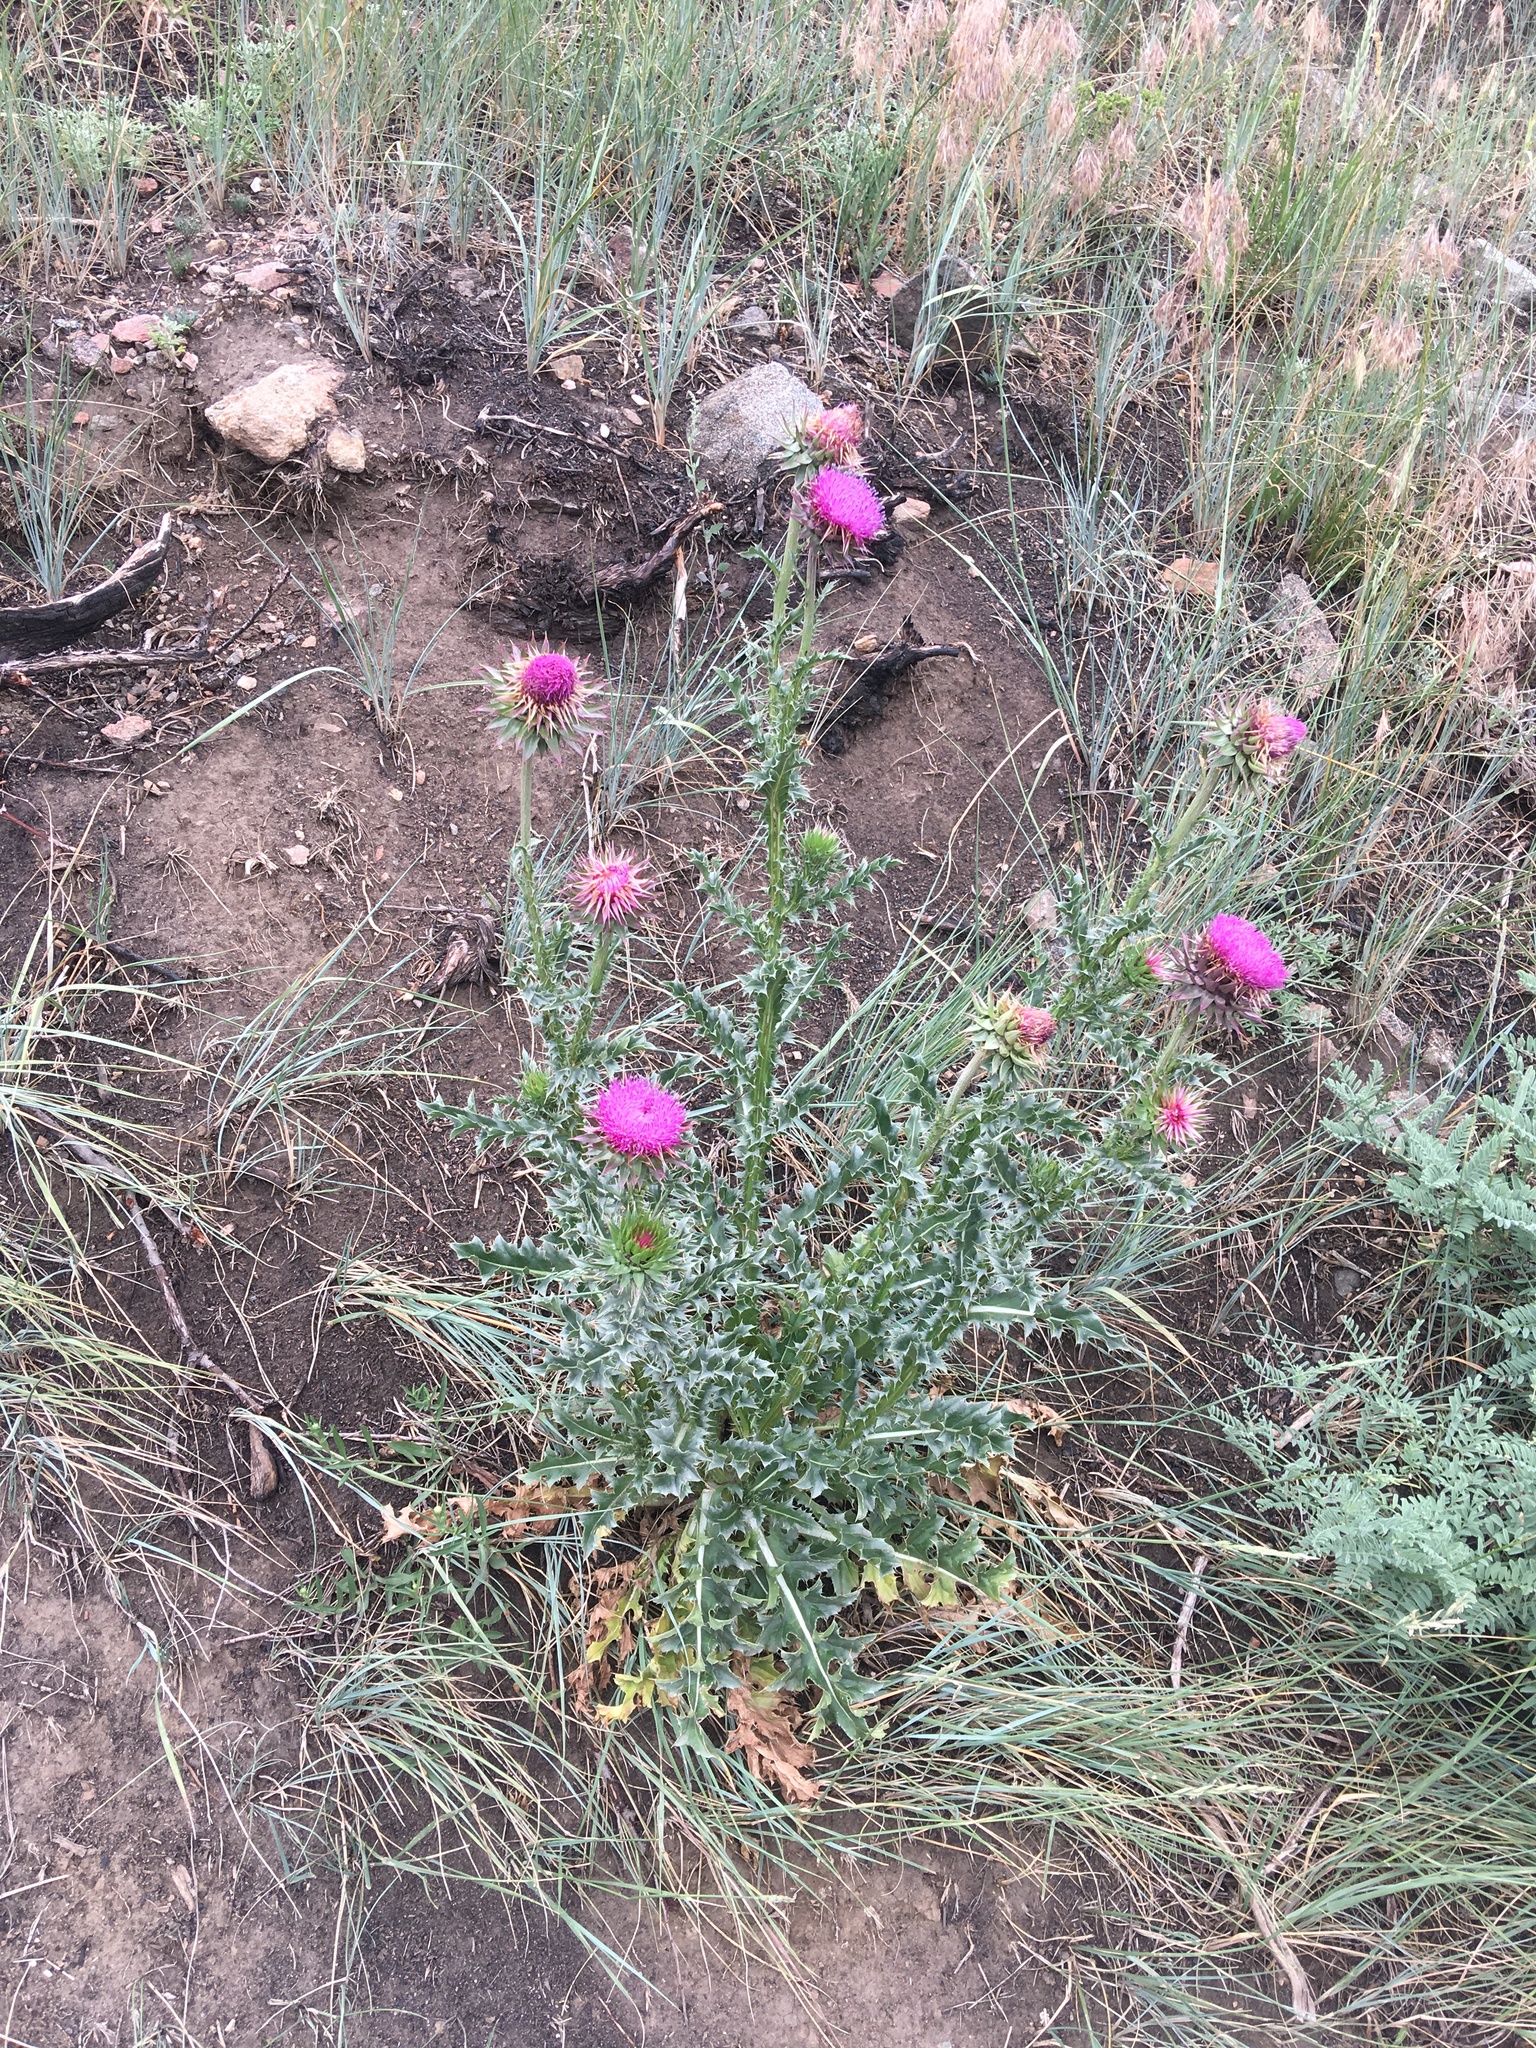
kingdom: Plantae
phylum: Tracheophyta
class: Magnoliopsida
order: Asterales
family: Asteraceae
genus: Carduus
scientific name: Carduus nutans
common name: Musk thistle
